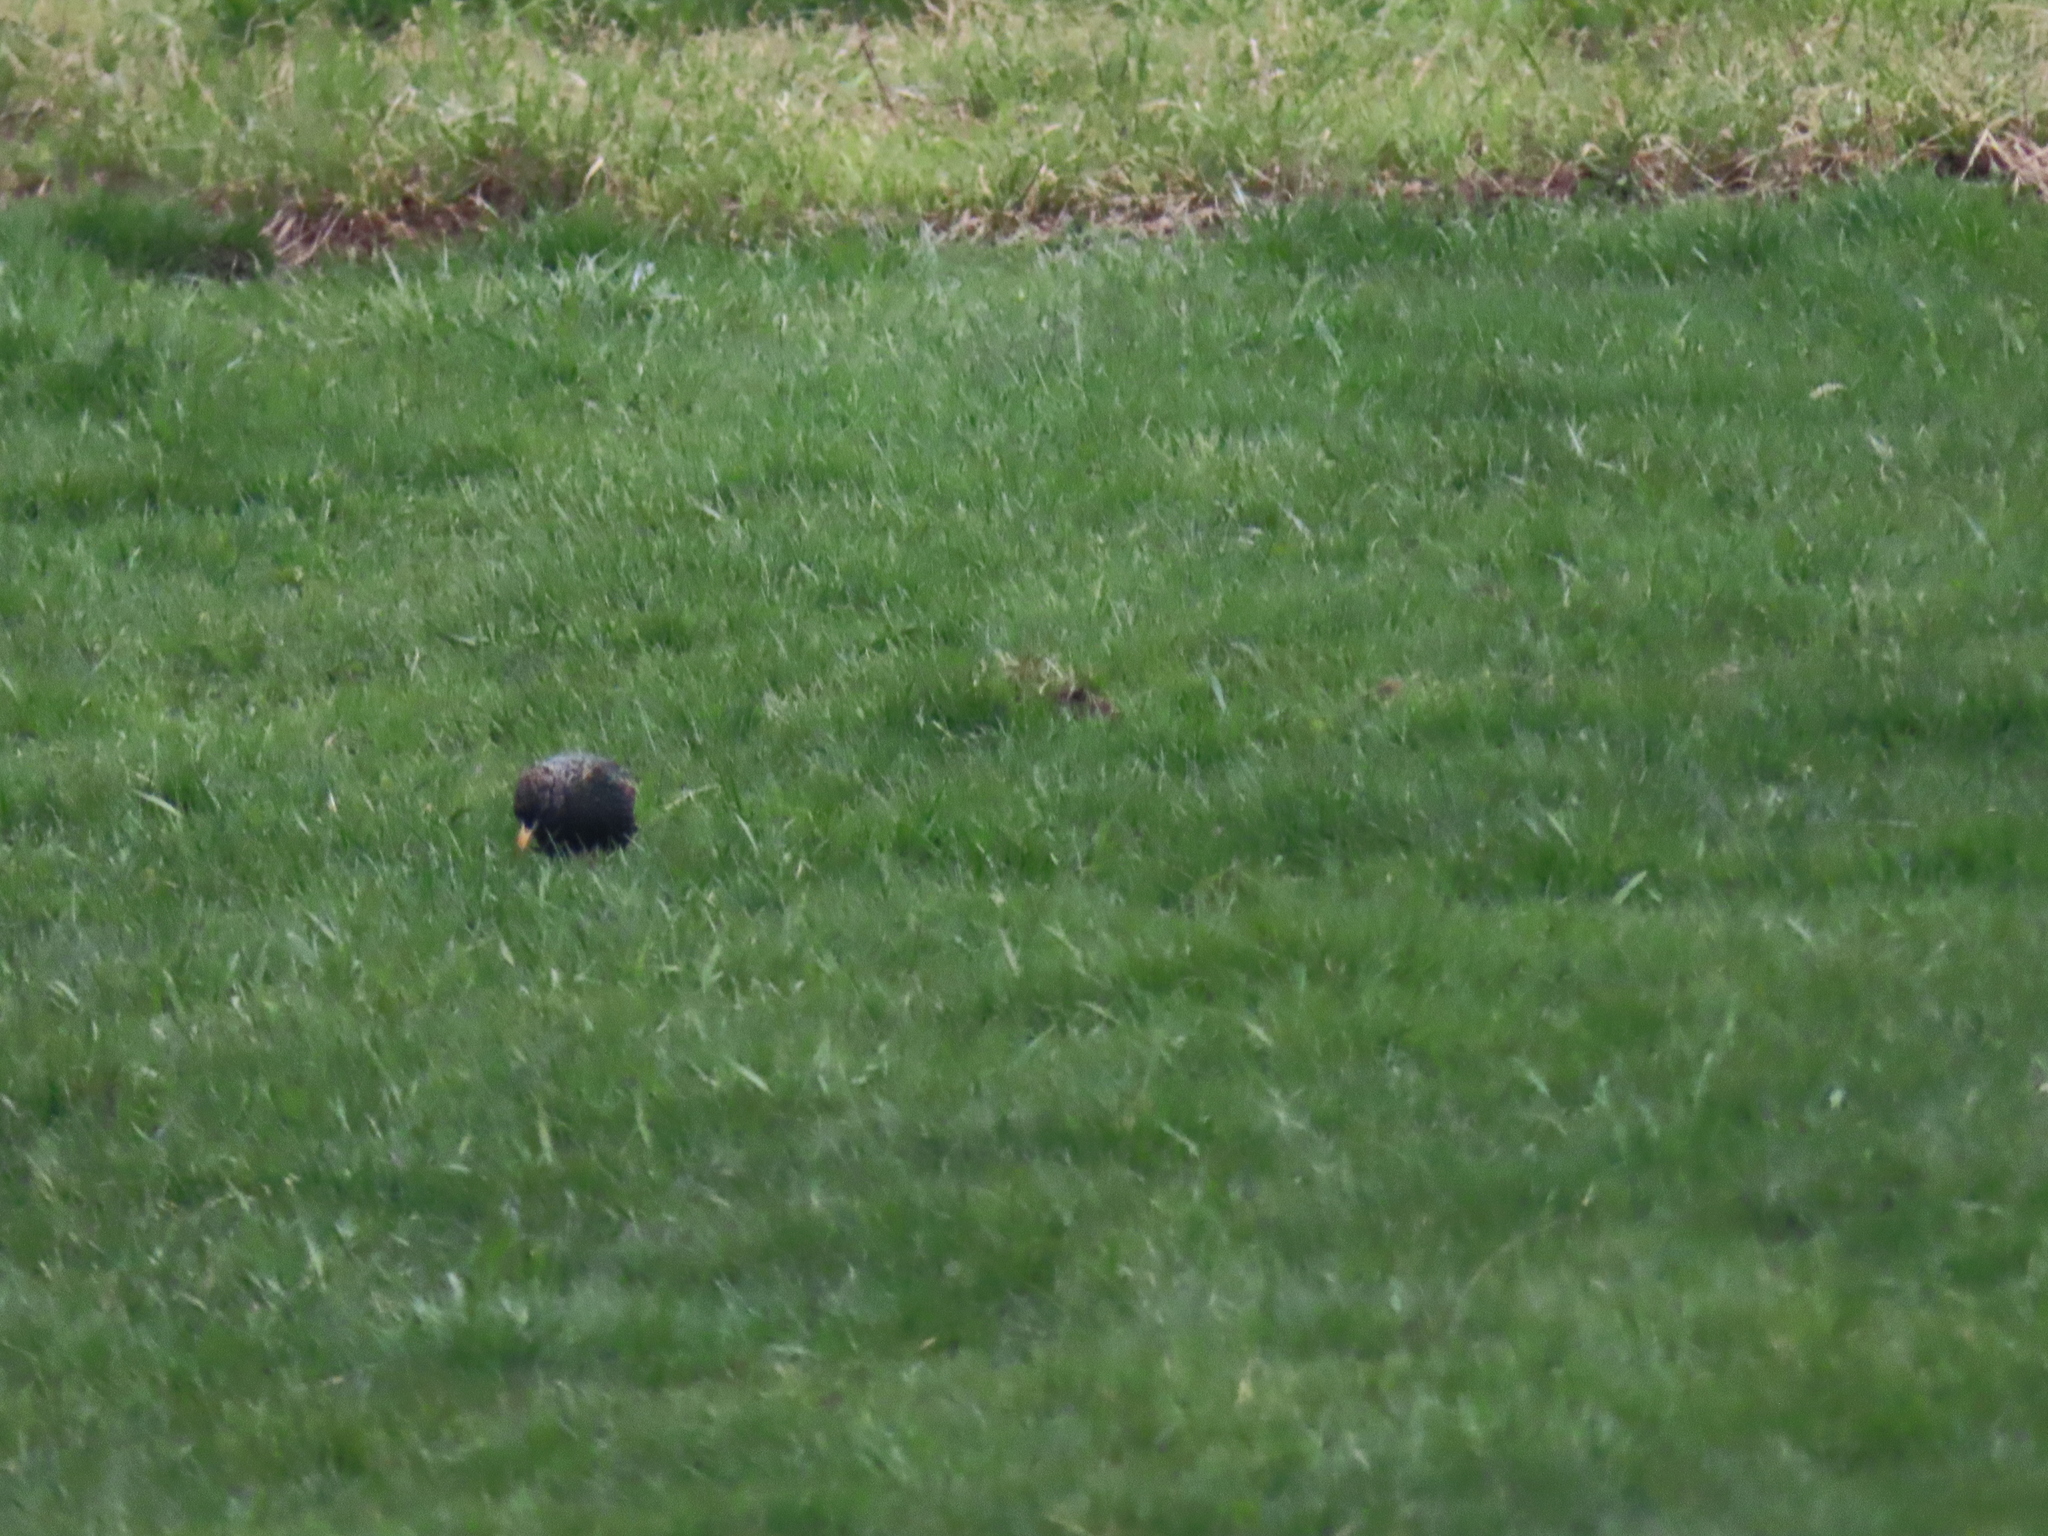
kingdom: Animalia
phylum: Chordata
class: Aves
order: Passeriformes
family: Sturnidae
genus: Sturnus
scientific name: Sturnus vulgaris
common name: Common starling
